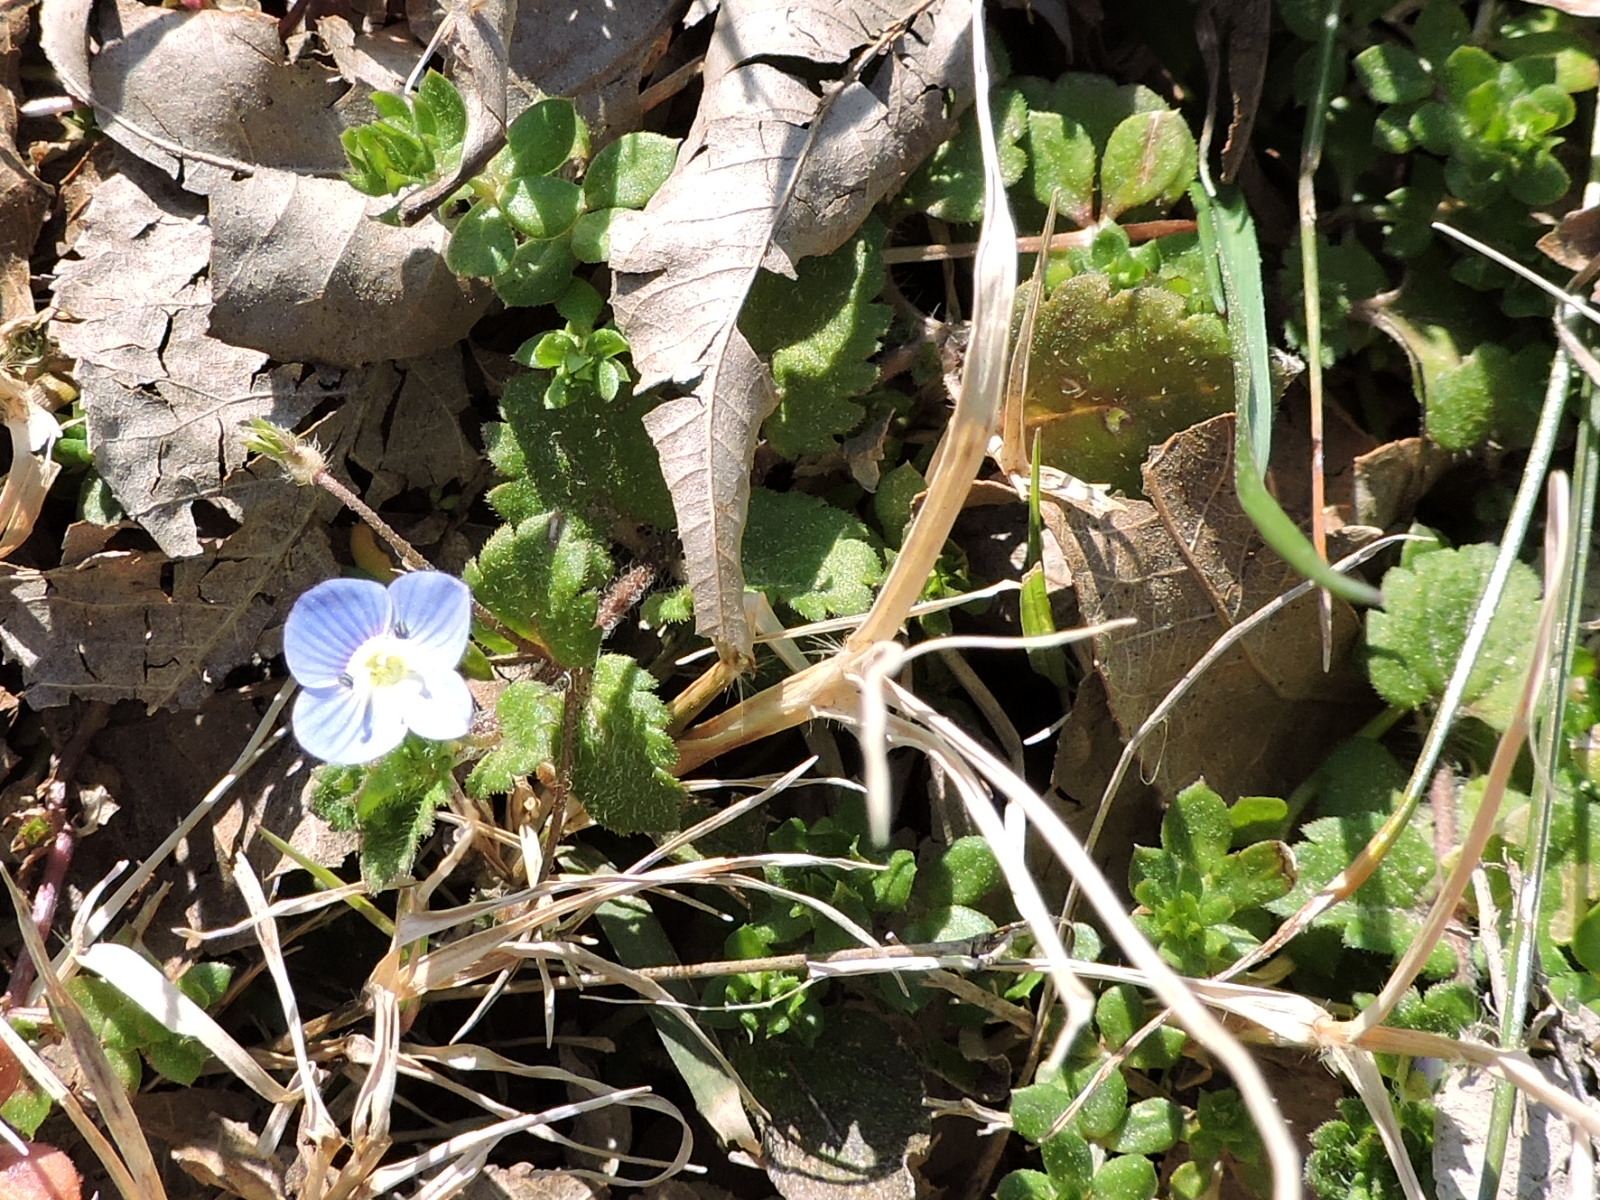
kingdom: Plantae
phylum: Tracheophyta
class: Magnoliopsida
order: Lamiales
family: Plantaginaceae
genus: Veronica
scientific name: Veronica persica
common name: Common field-speedwell
